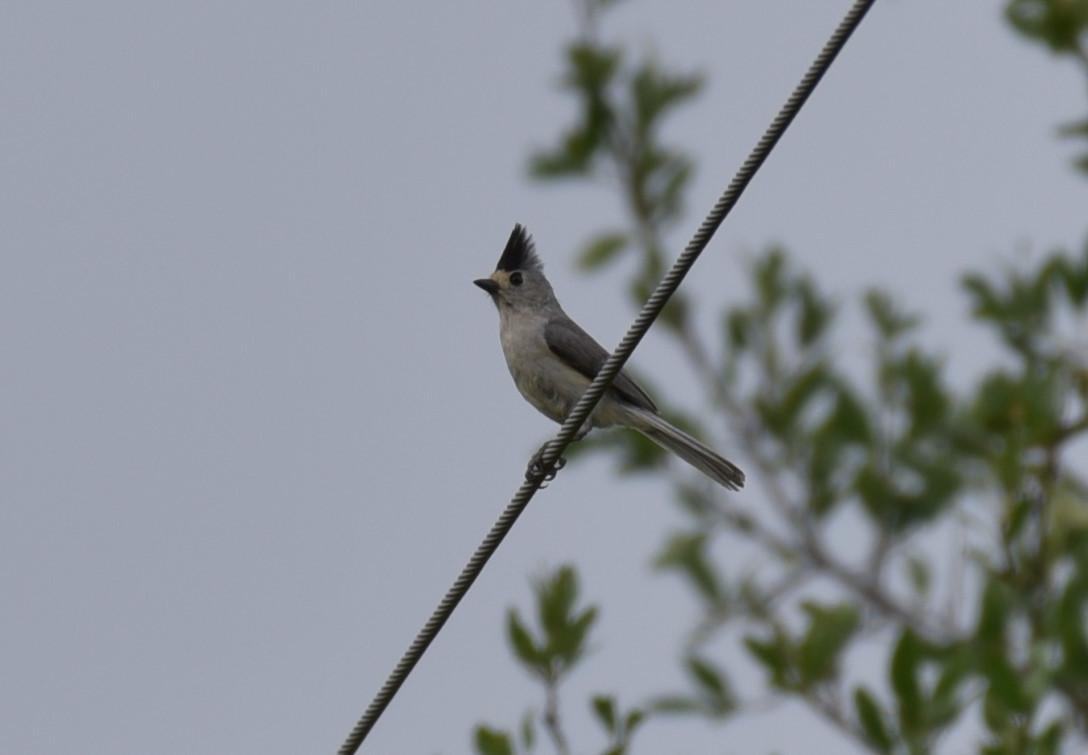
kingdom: Animalia
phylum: Chordata
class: Aves
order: Passeriformes
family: Paridae
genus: Baeolophus
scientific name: Baeolophus atricristatus
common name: Black-crested titmouse
